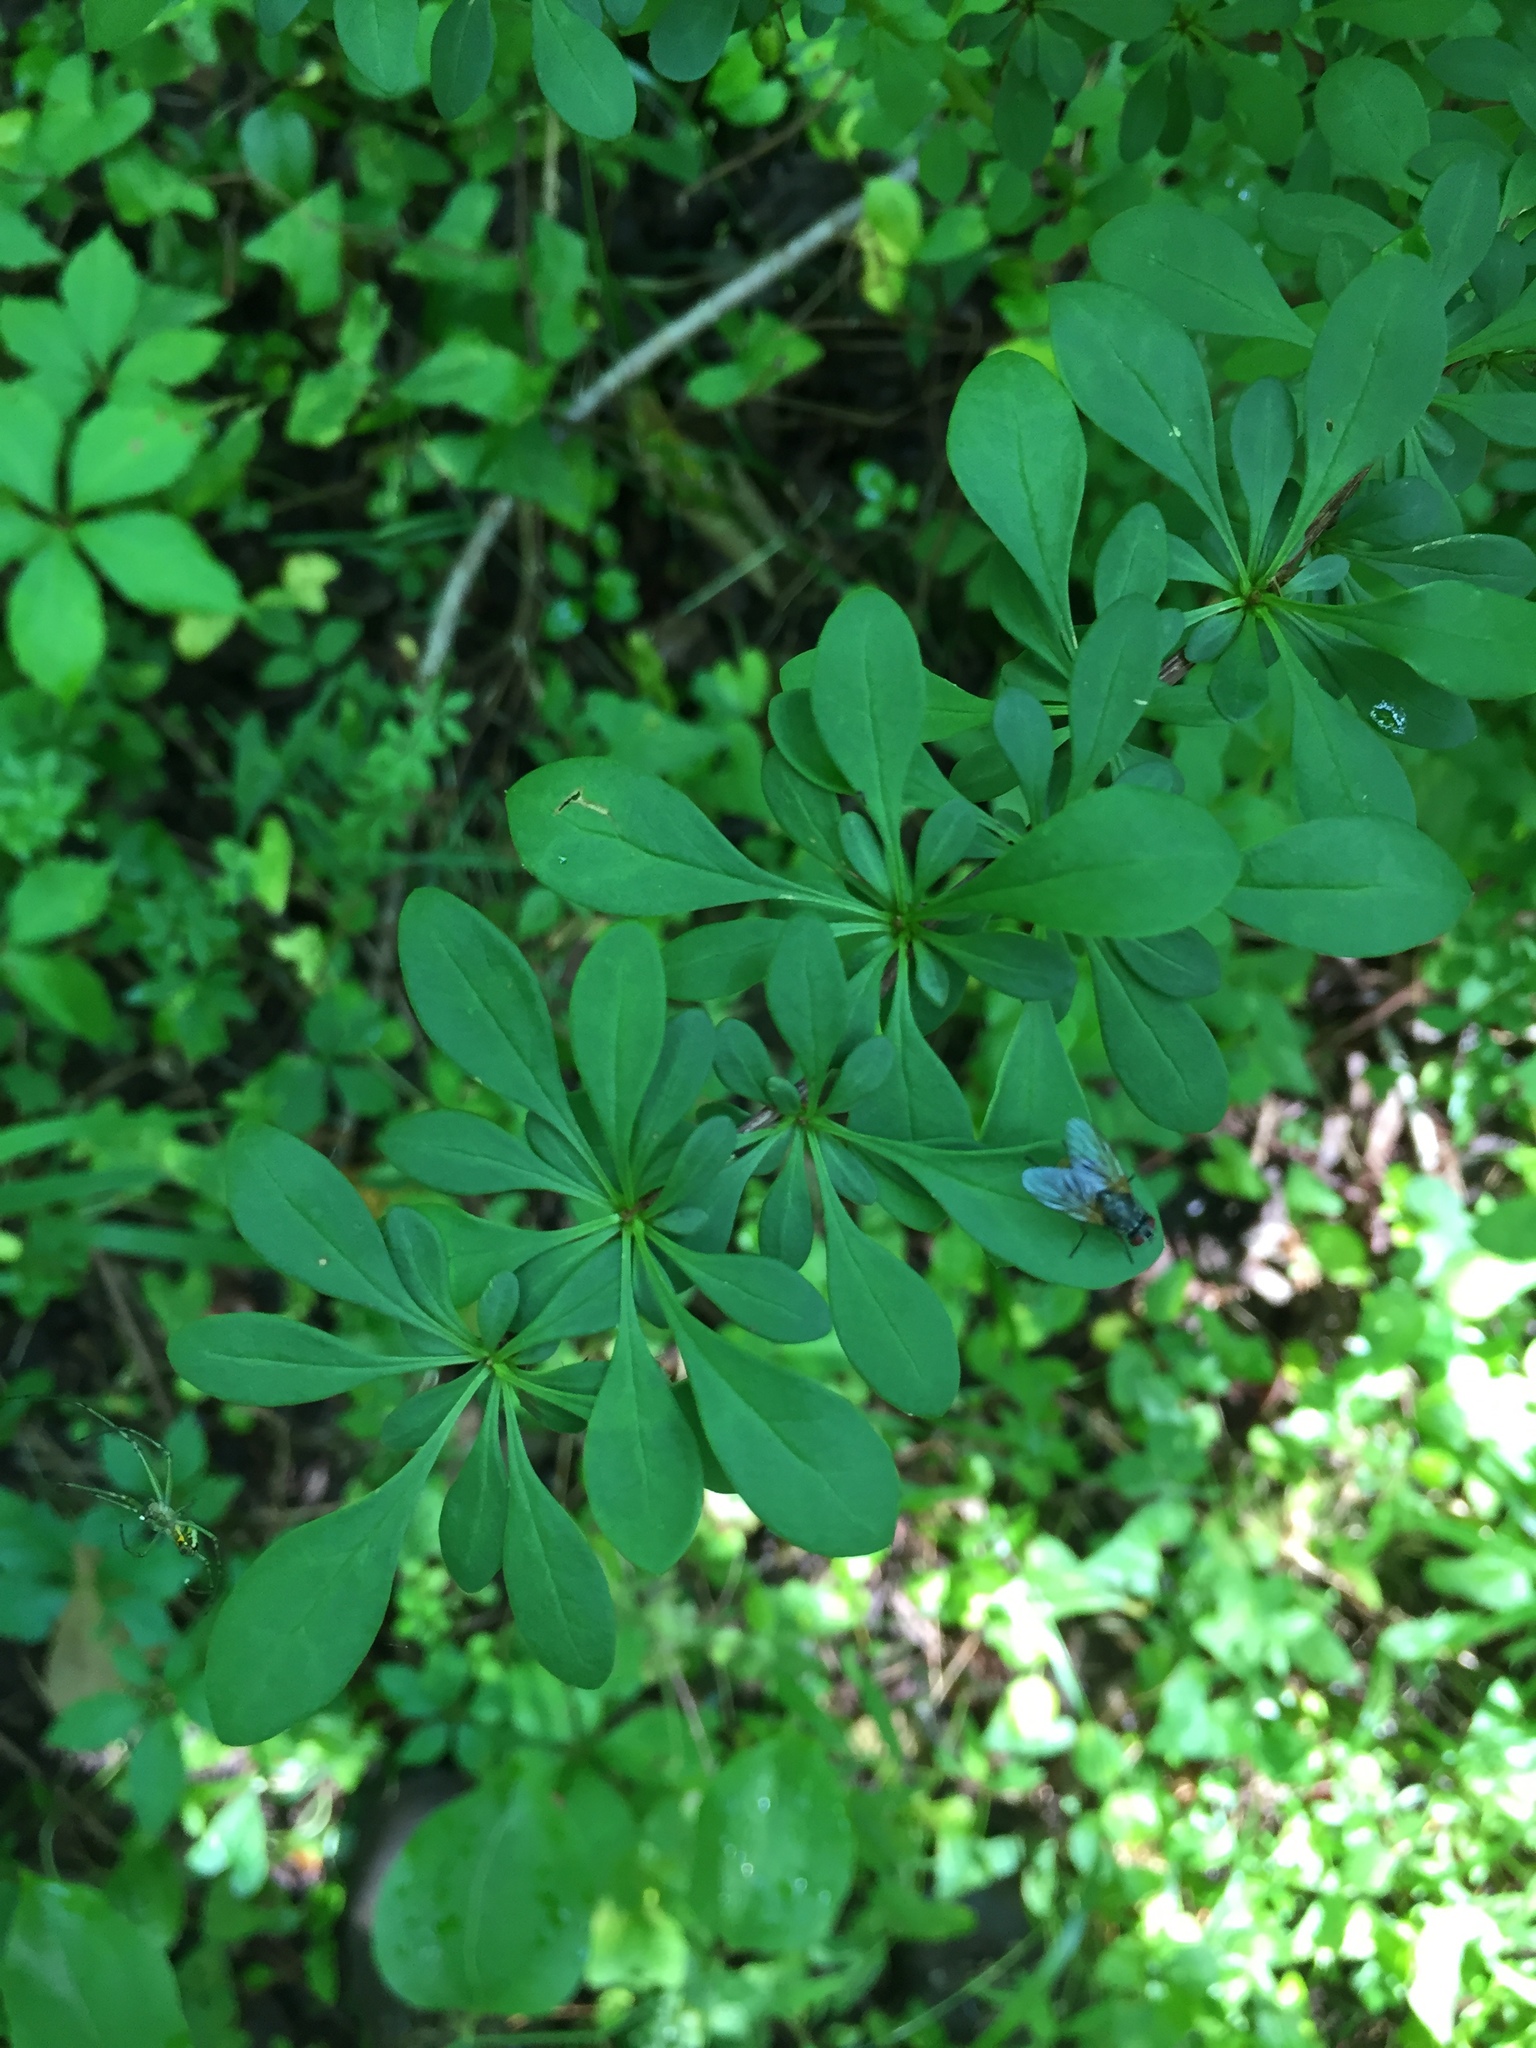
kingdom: Plantae
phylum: Tracheophyta
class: Magnoliopsida
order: Ranunculales
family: Berberidaceae
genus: Berberis
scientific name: Berberis thunbergii
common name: Japanese barberry
